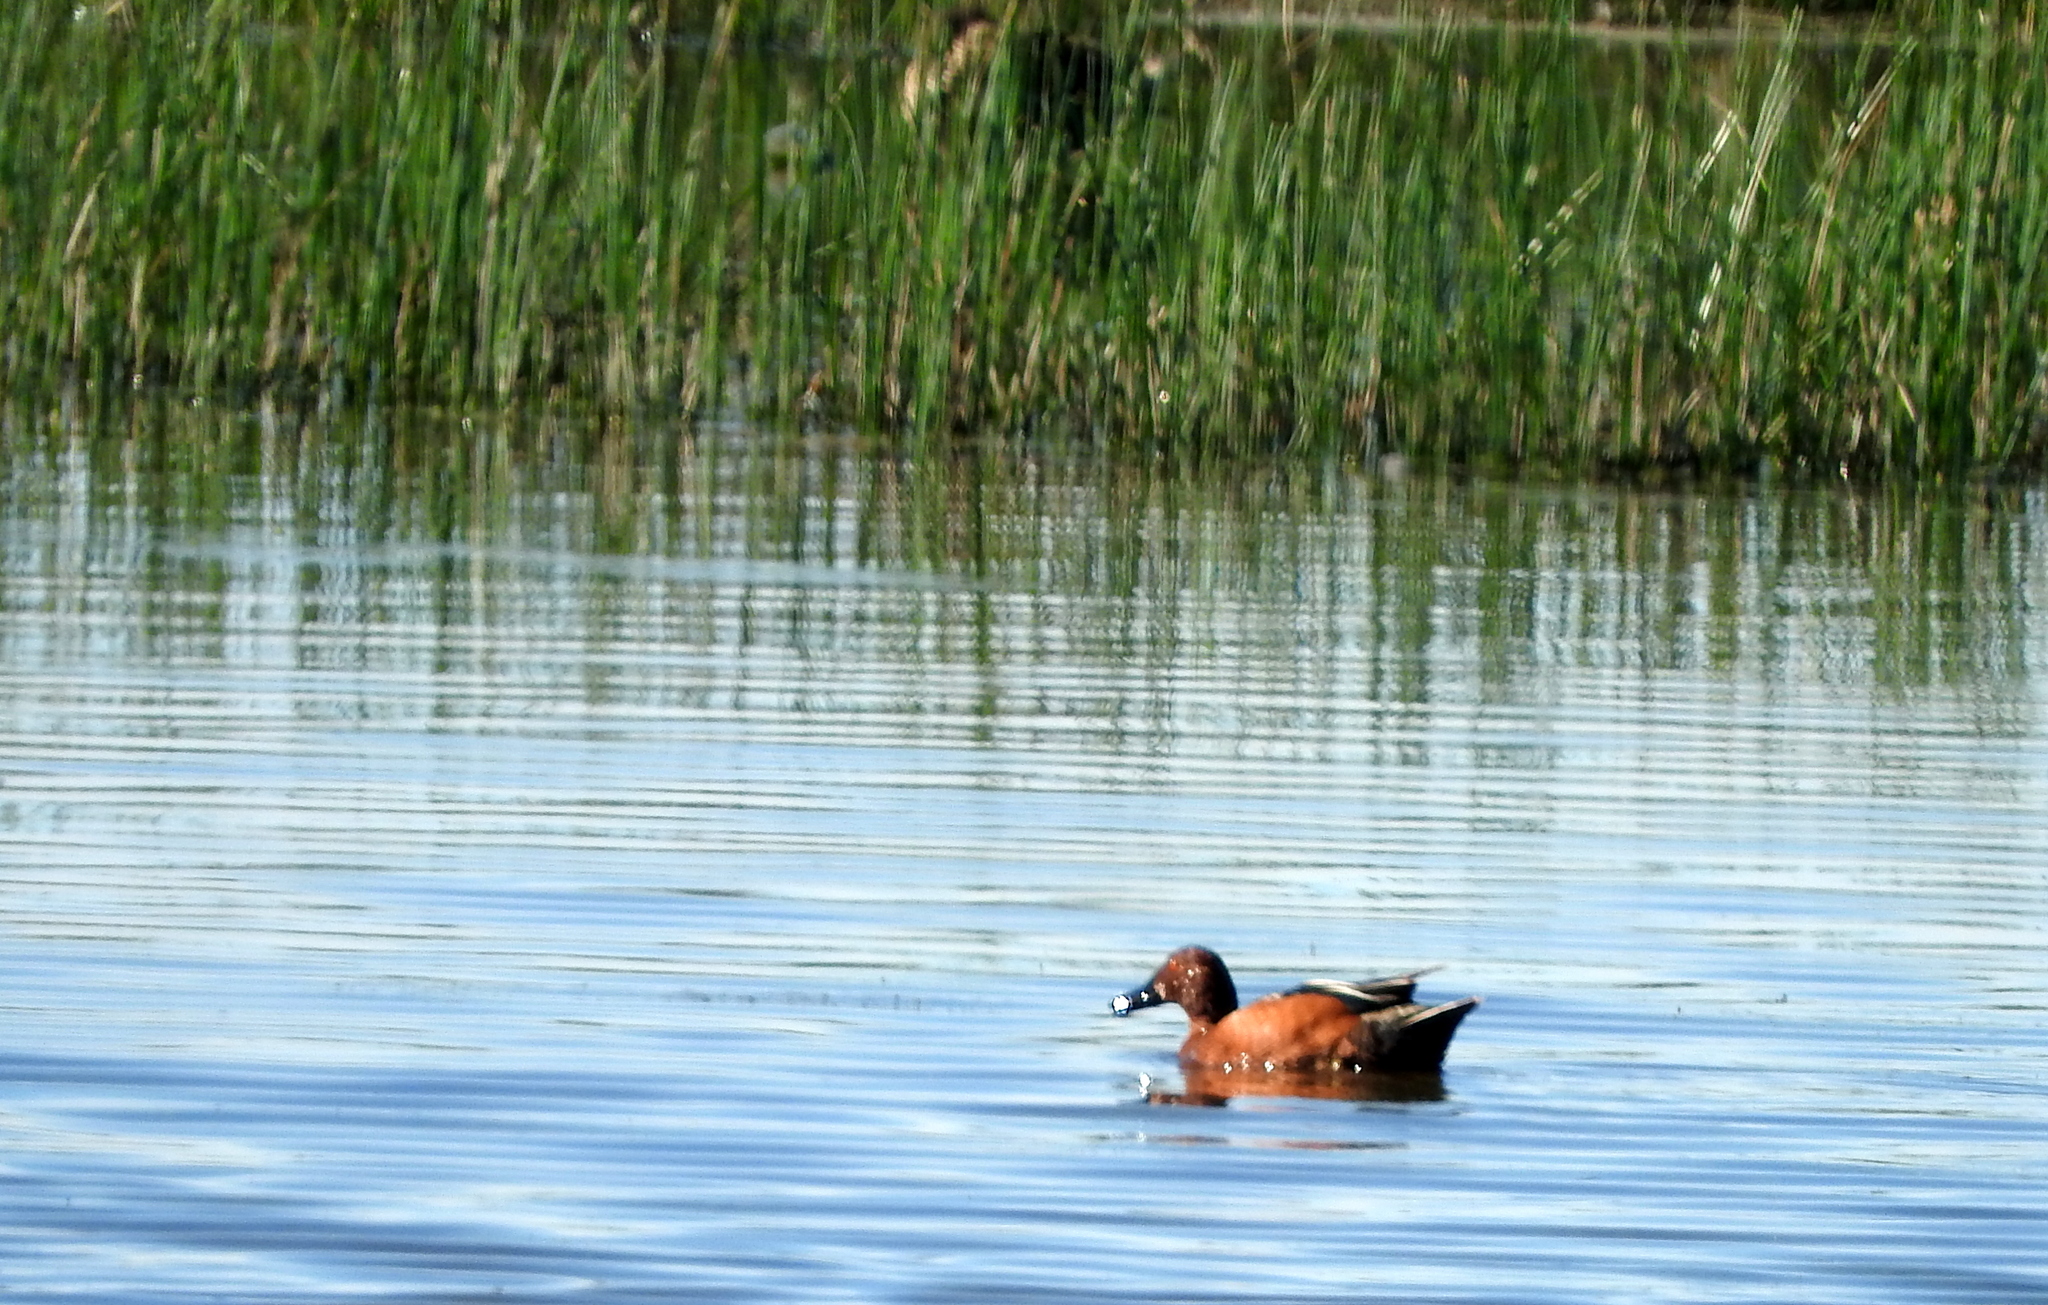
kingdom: Animalia
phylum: Chordata
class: Aves
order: Anseriformes
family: Anatidae
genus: Spatula
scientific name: Spatula cyanoptera
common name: Cinnamon teal
